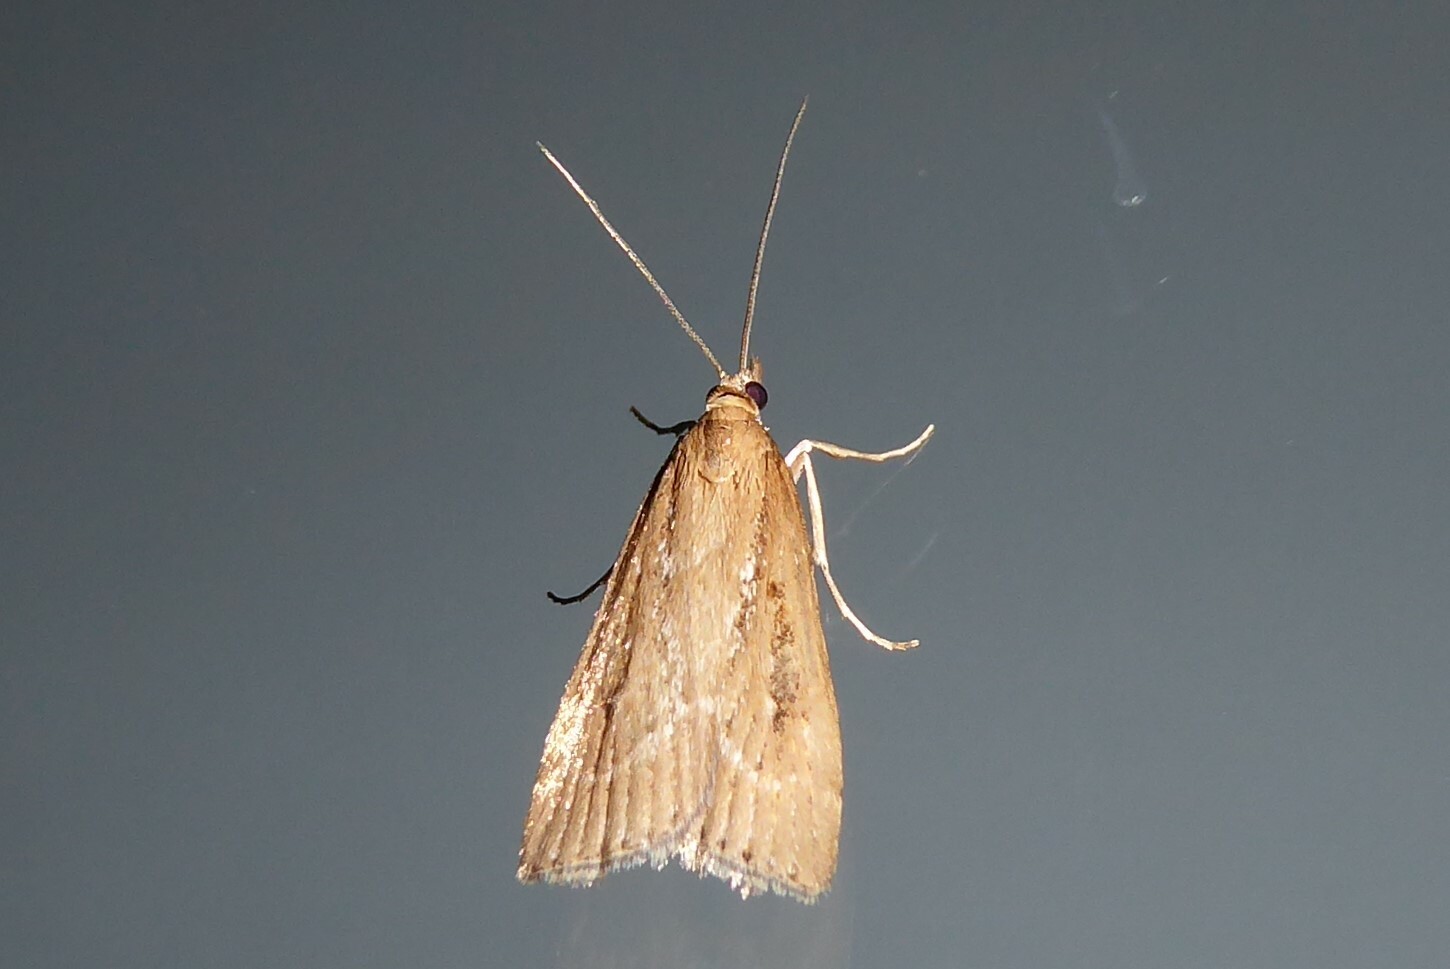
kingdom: Animalia
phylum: Arthropoda
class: Insecta
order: Lepidoptera
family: Crambidae
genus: Eudonia
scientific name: Eudonia octophora
